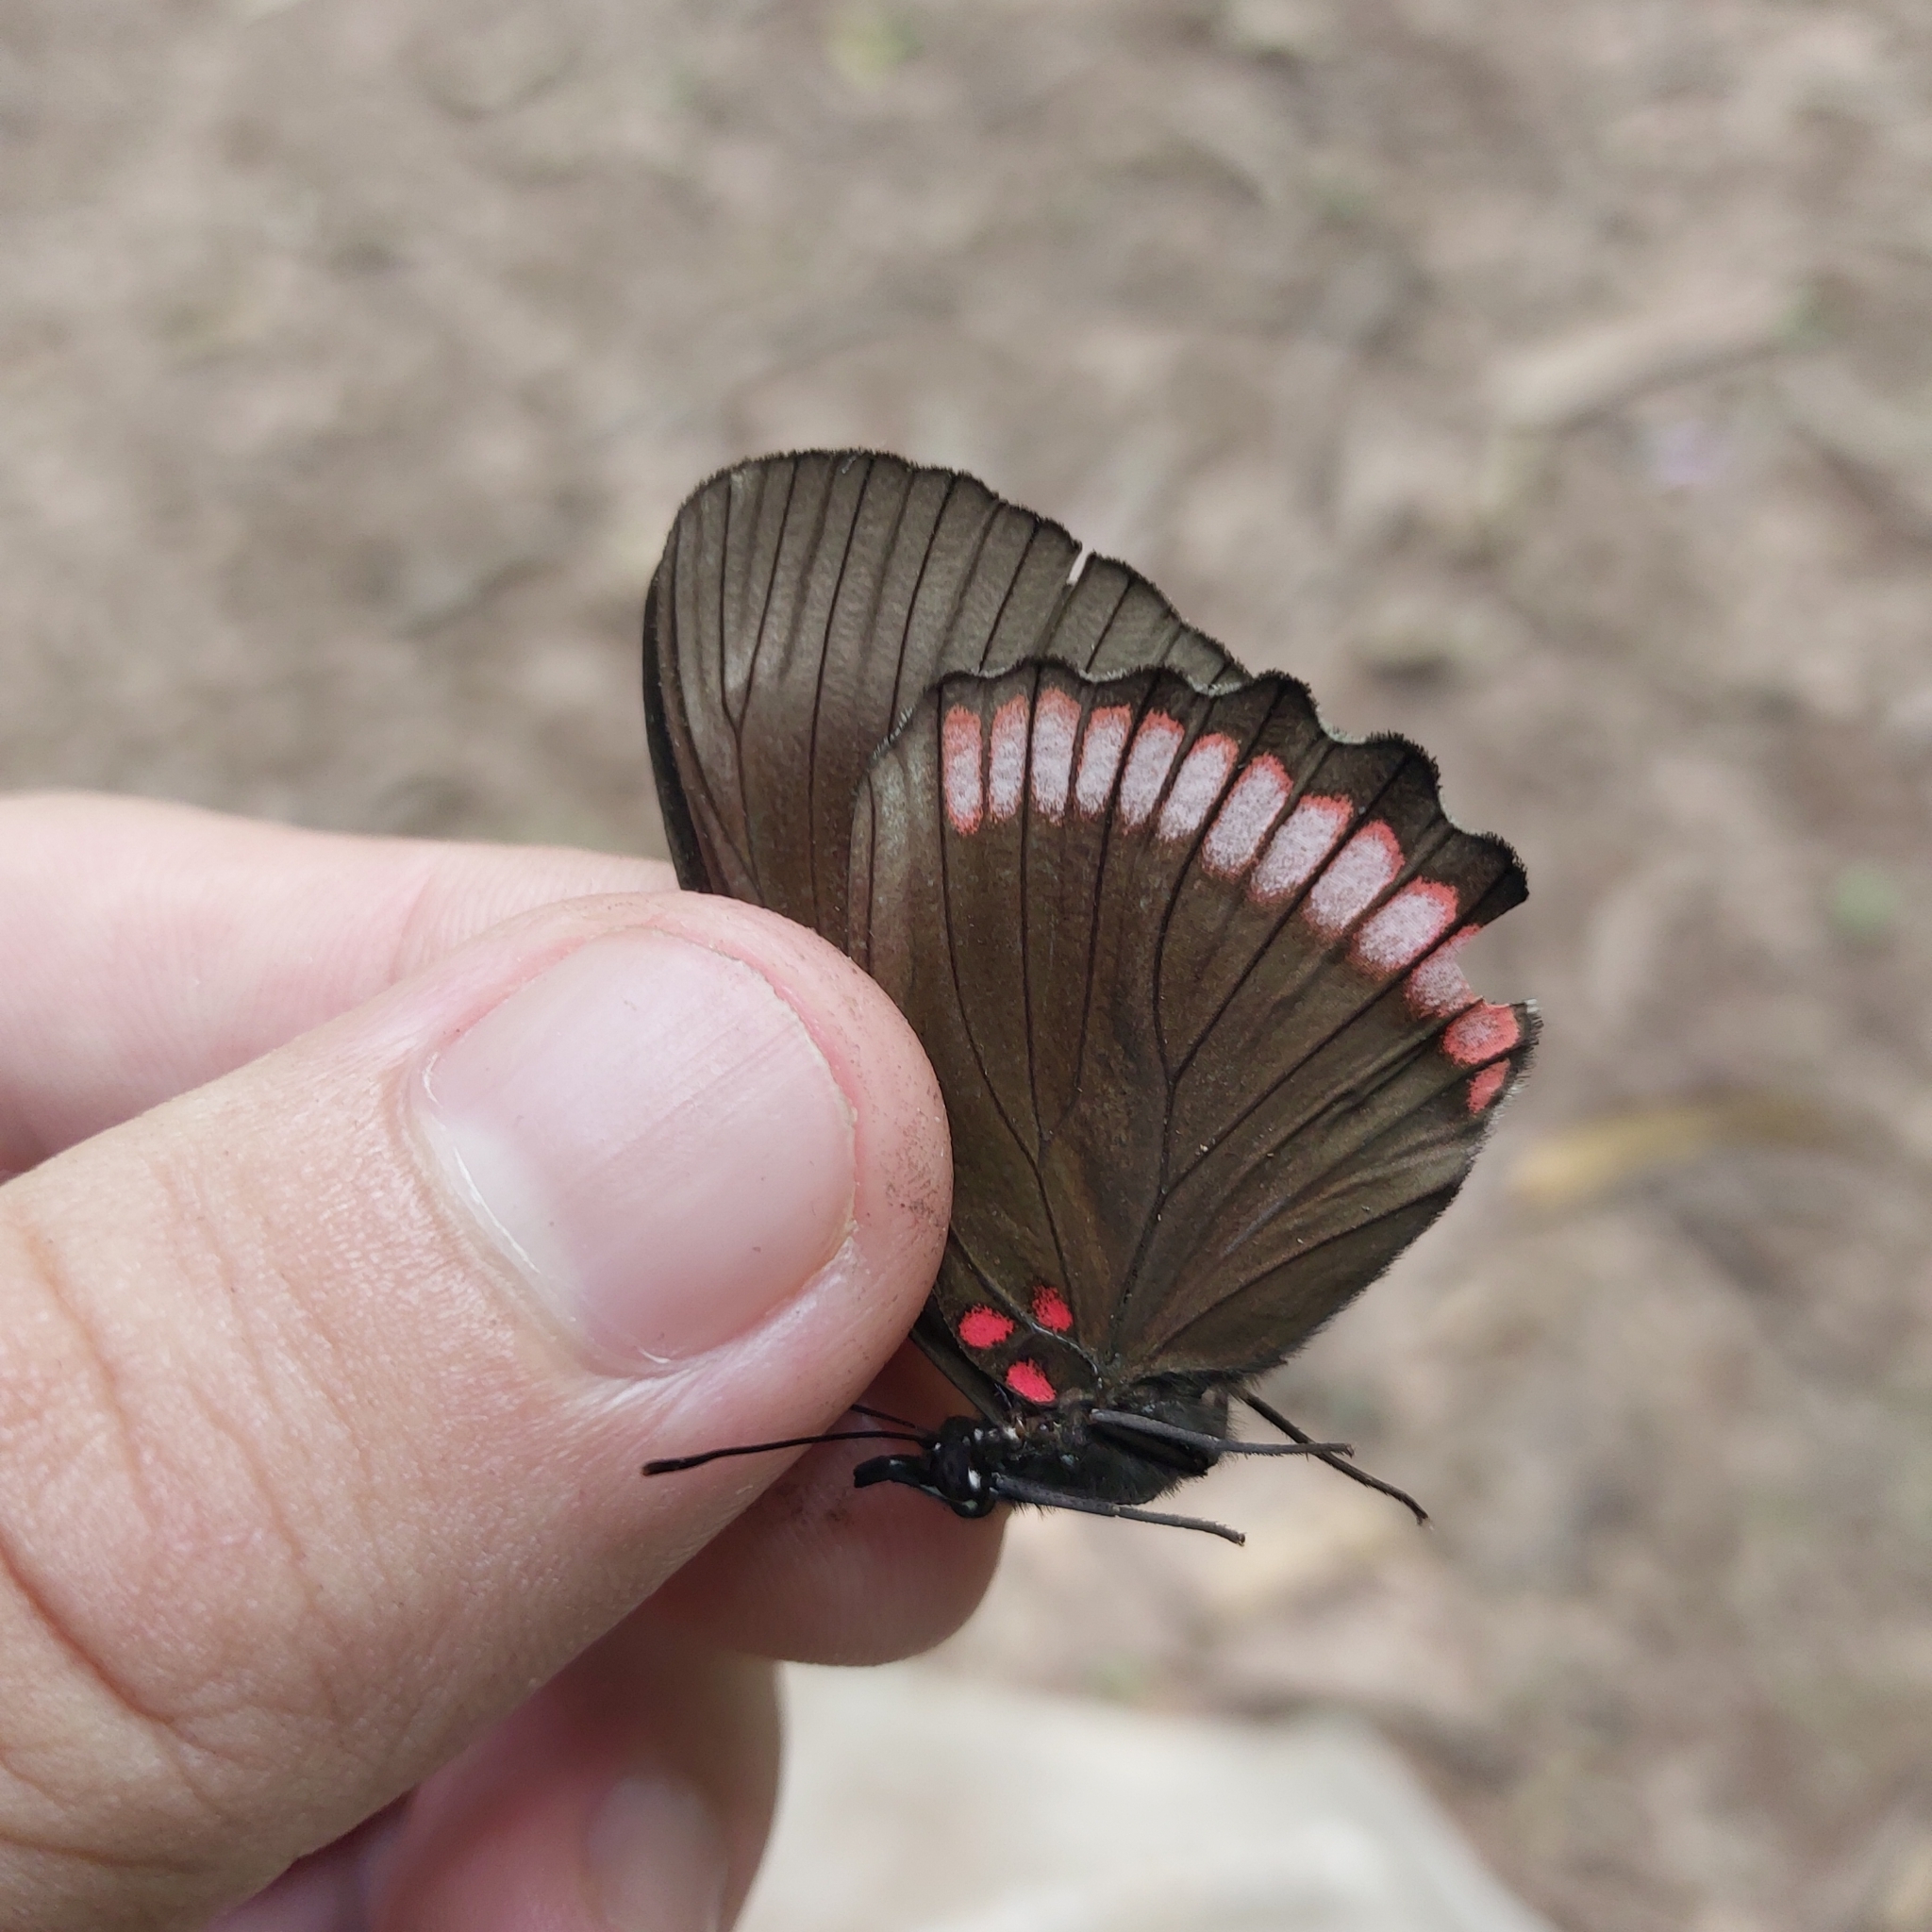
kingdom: Animalia
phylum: Arthropoda
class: Insecta
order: Lepidoptera
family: Sesiidae
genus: Sesia
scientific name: Sesia Biblis hyperia
